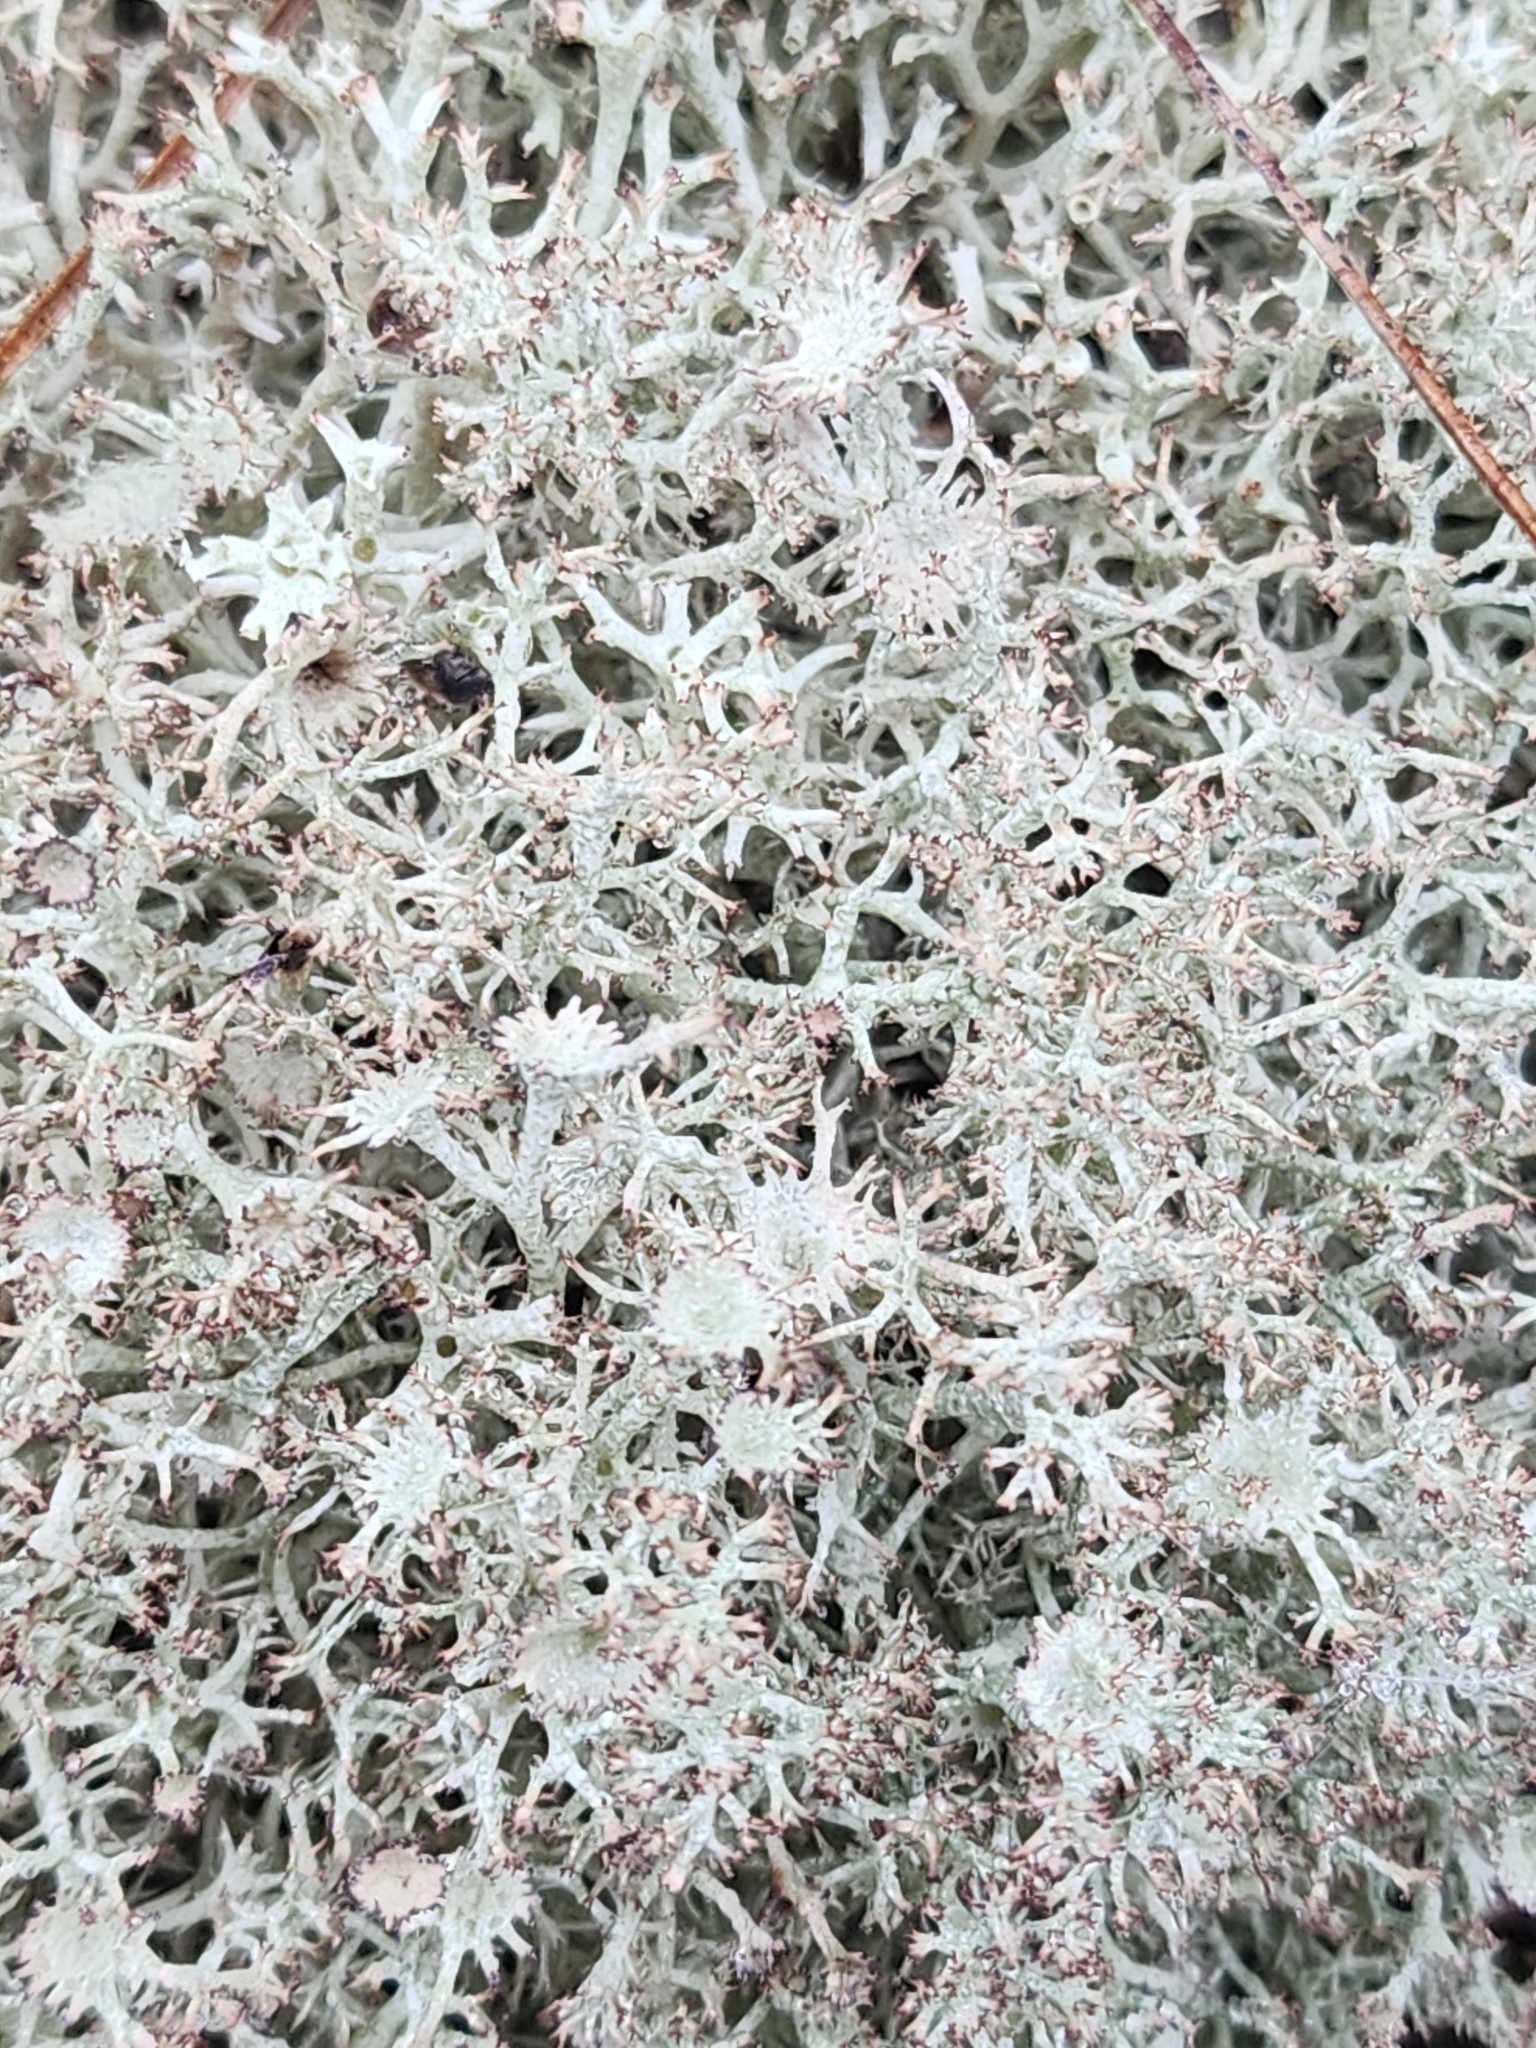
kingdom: Fungi
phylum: Ascomycota
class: Lecanoromycetes
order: Lecanorales
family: Cladoniaceae
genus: Cladonia
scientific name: Cladonia amaurocraea
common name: Quill lichen
